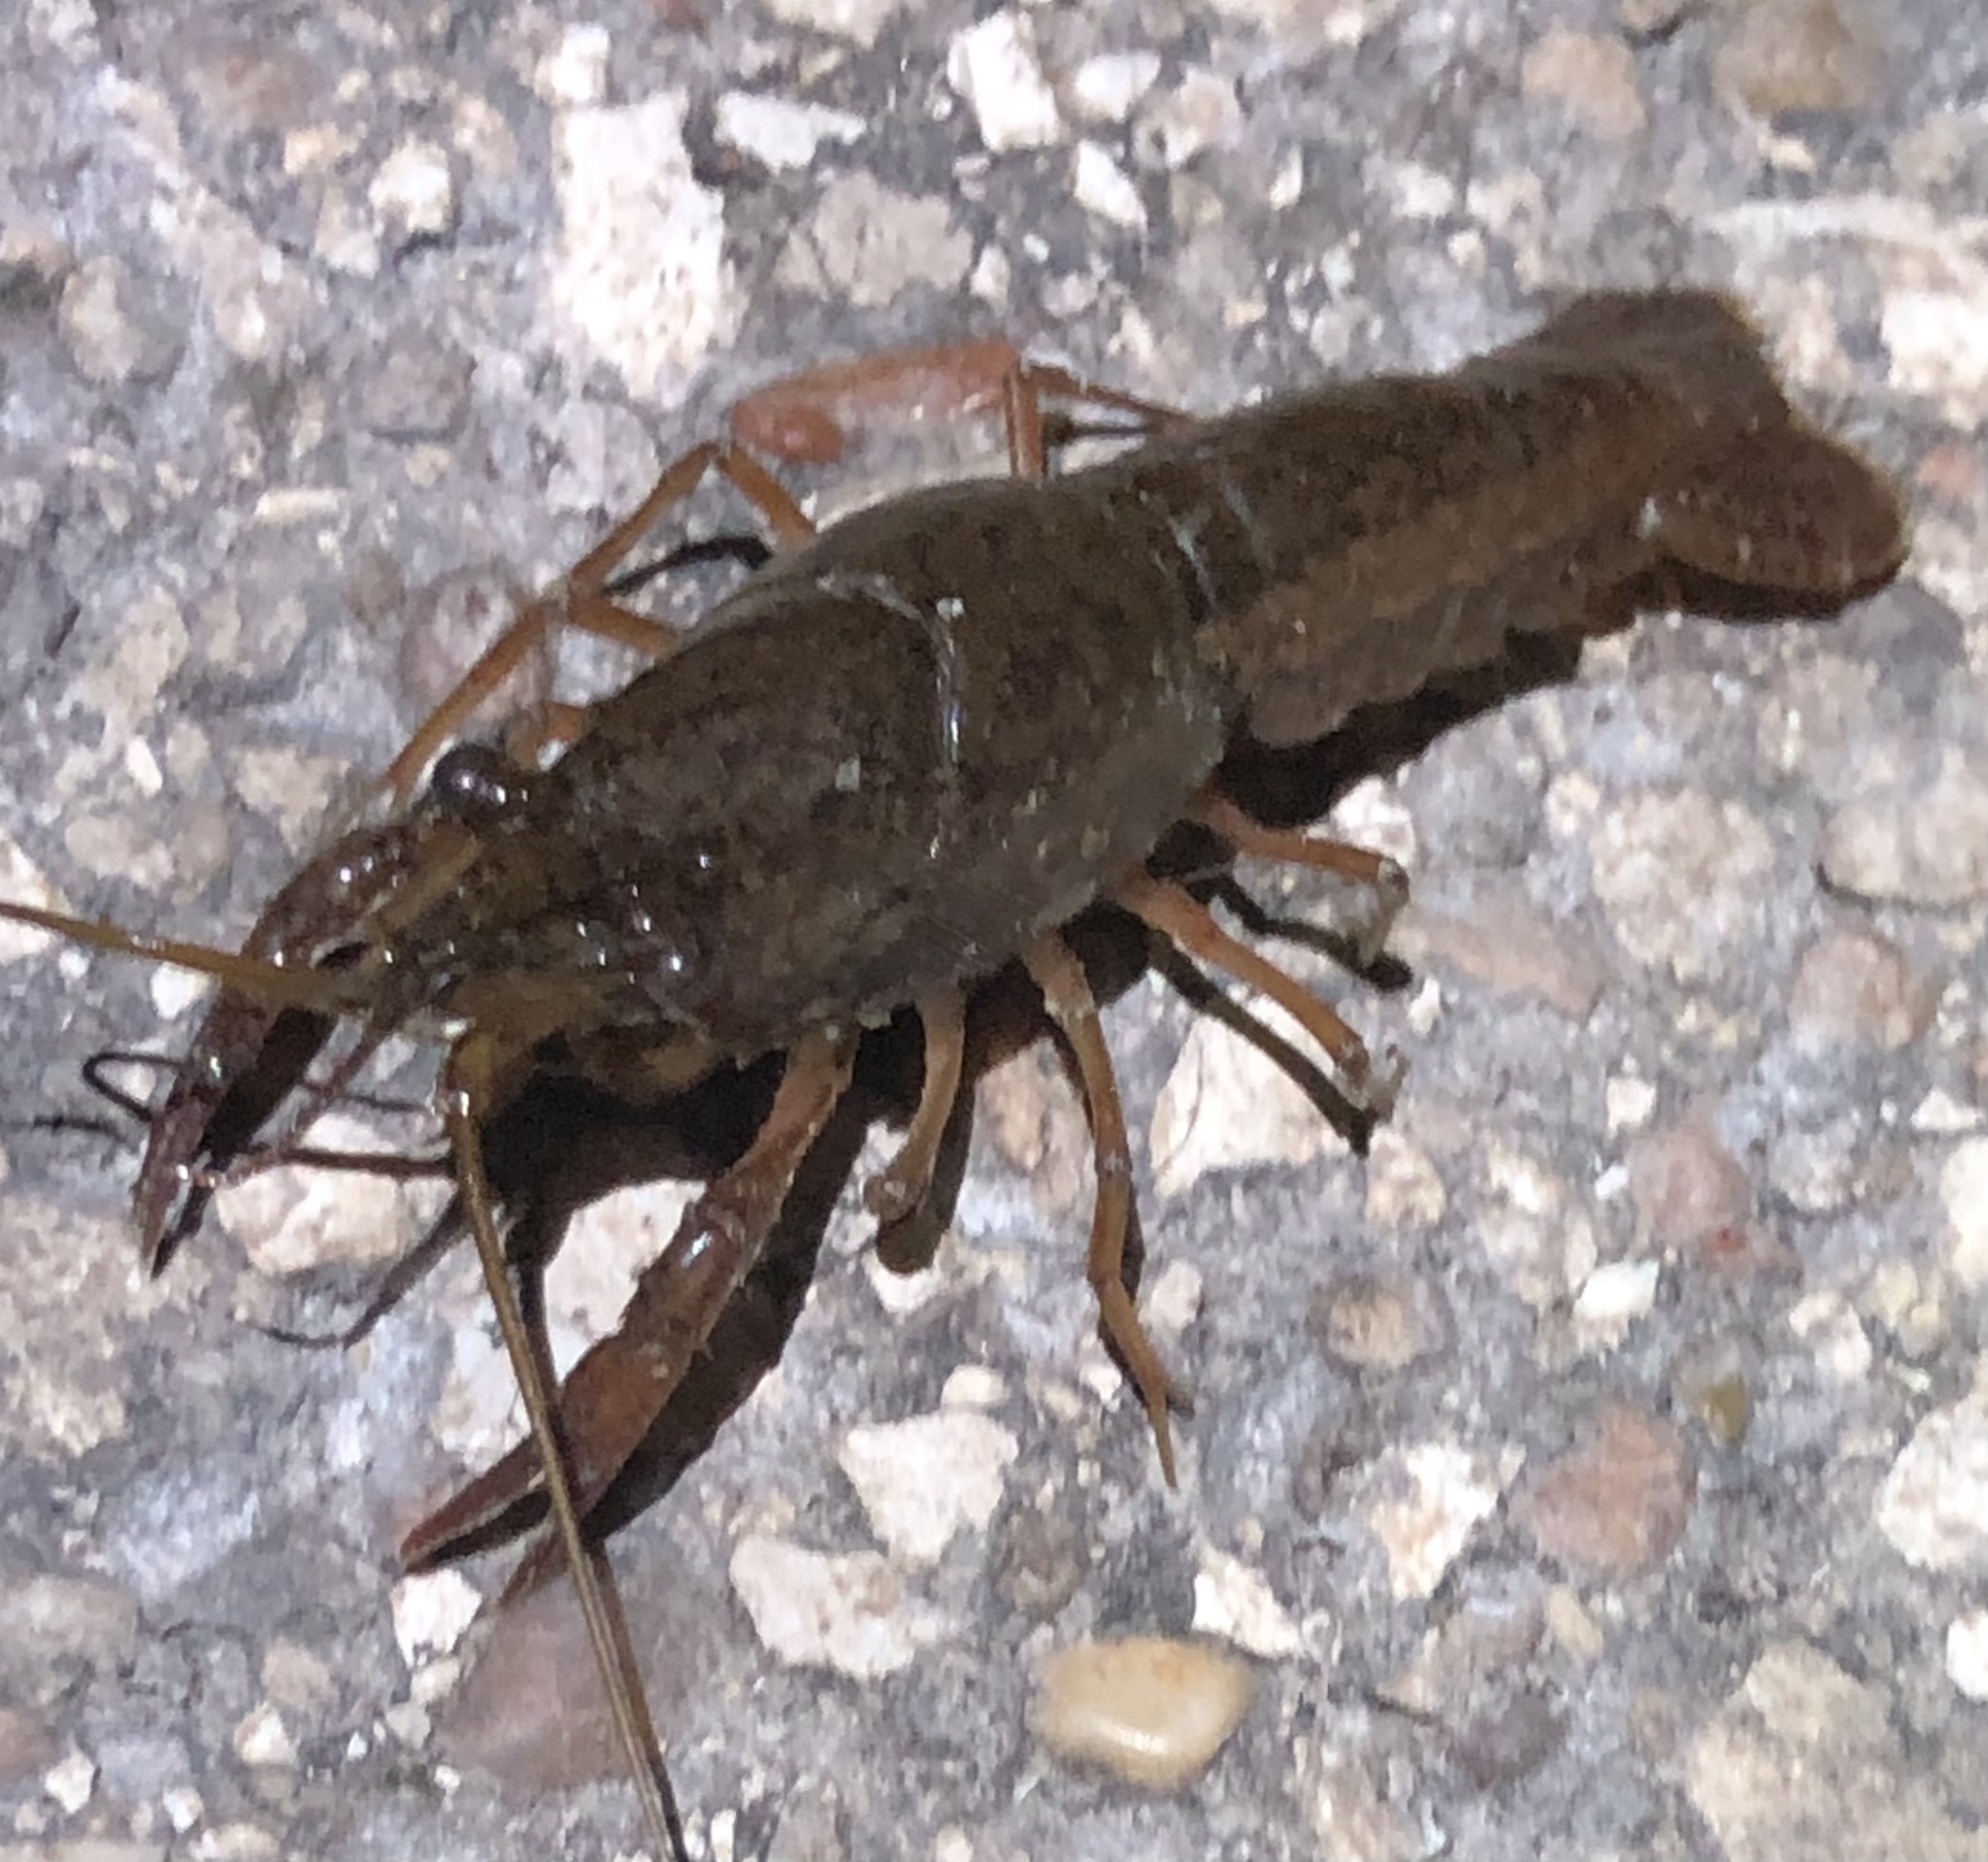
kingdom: Animalia
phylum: Arthropoda
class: Malacostraca
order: Decapoda
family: Cambaridae
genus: Procambarus
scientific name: Procambarus clarkii
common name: Red swamp crayfish
